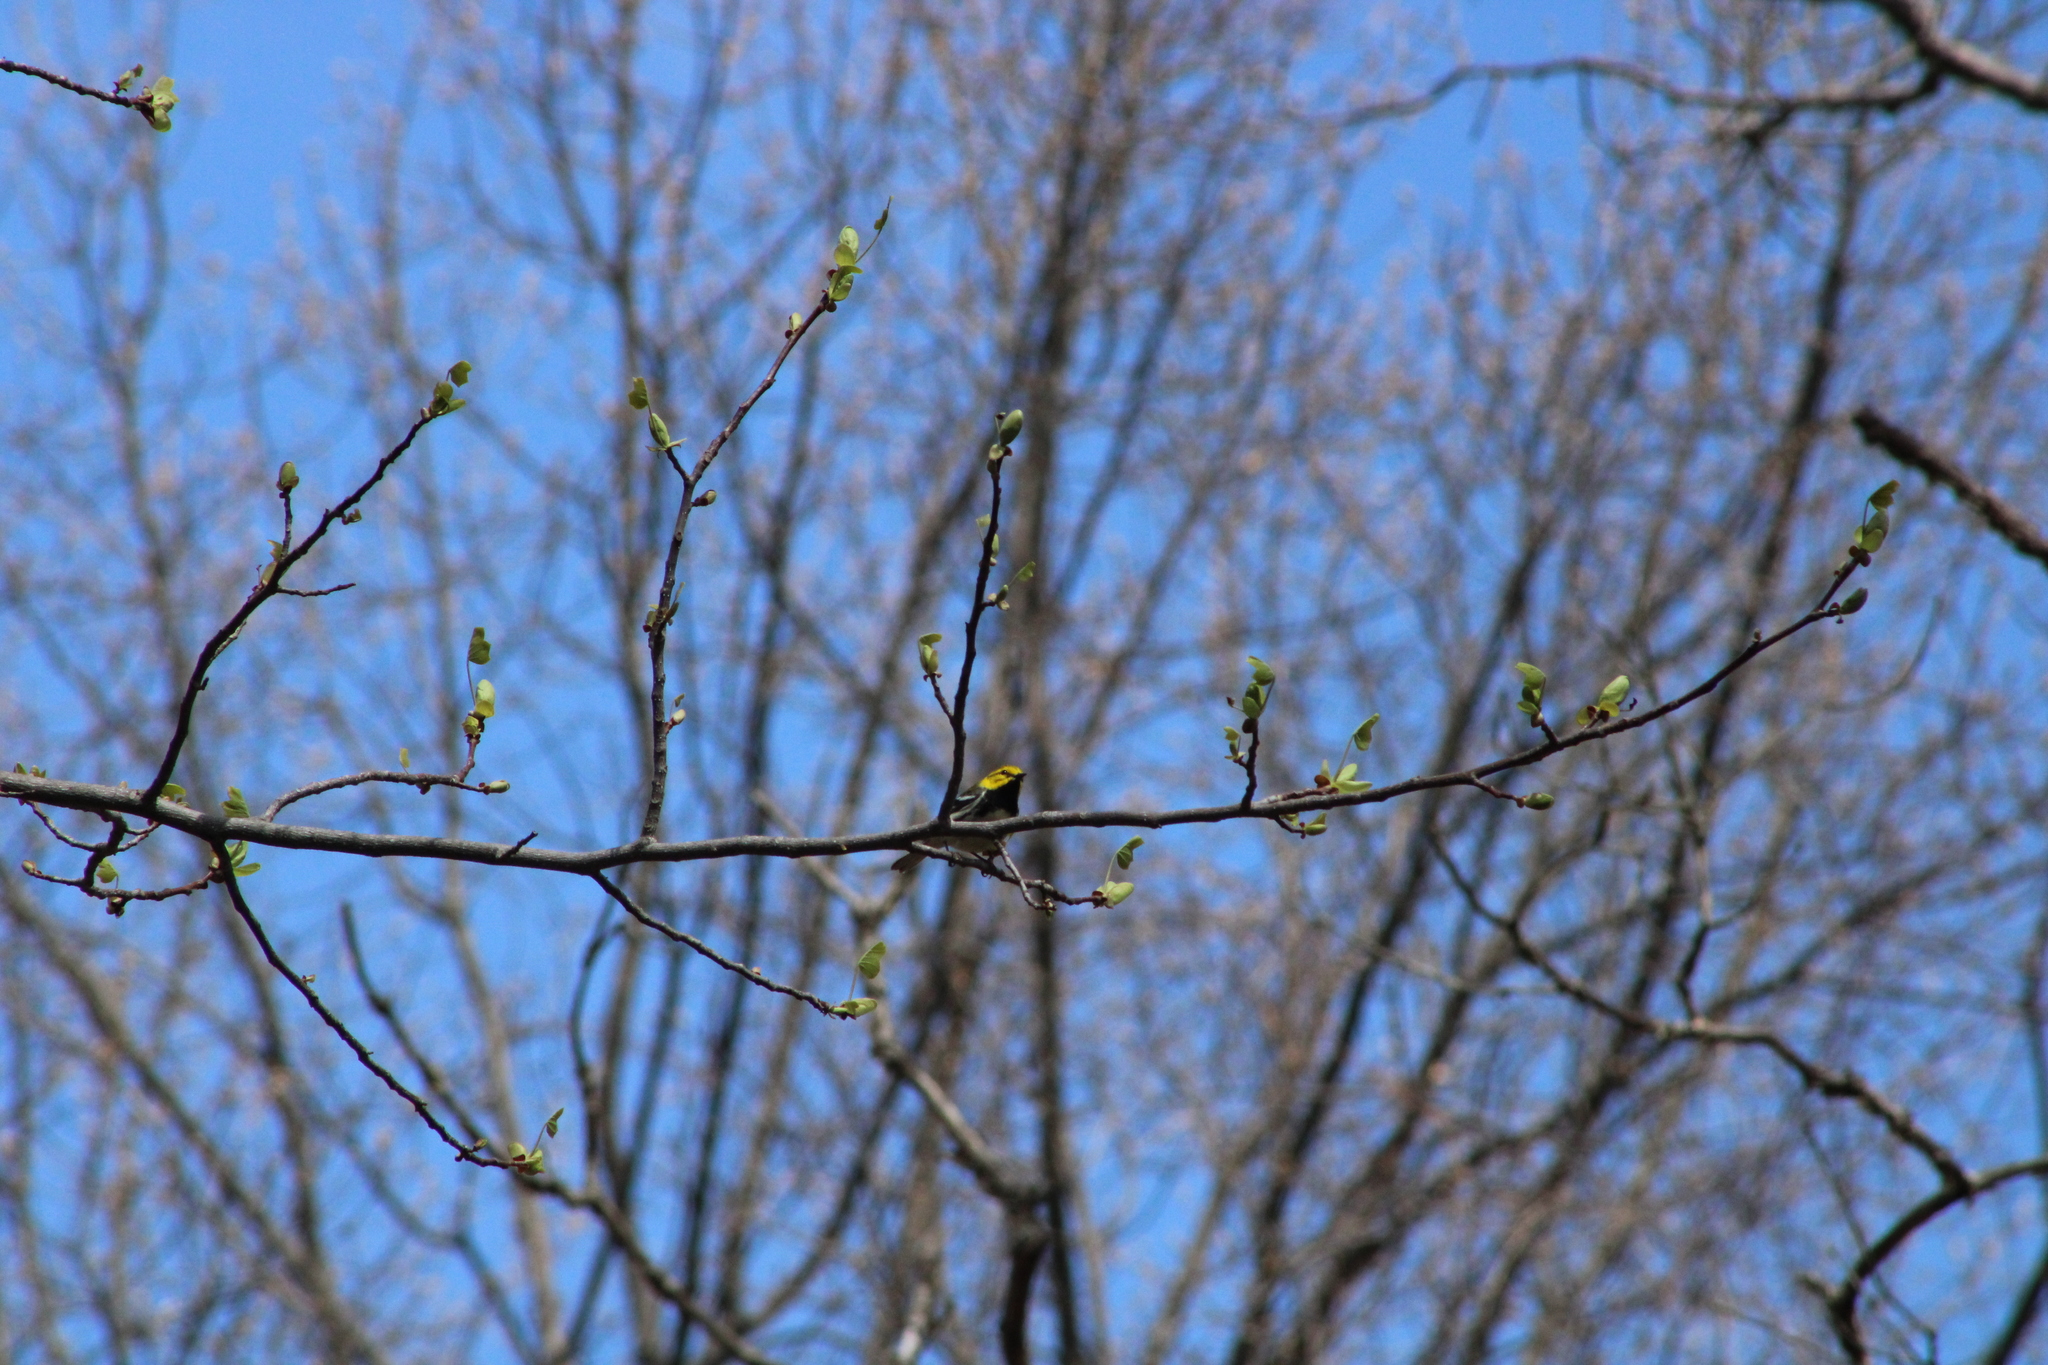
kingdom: Animalia
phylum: Chordata
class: Aves
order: Passeriformes
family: Parulidae
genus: Setophaga
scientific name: Setophaga virens
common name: Black-throated green warbler
